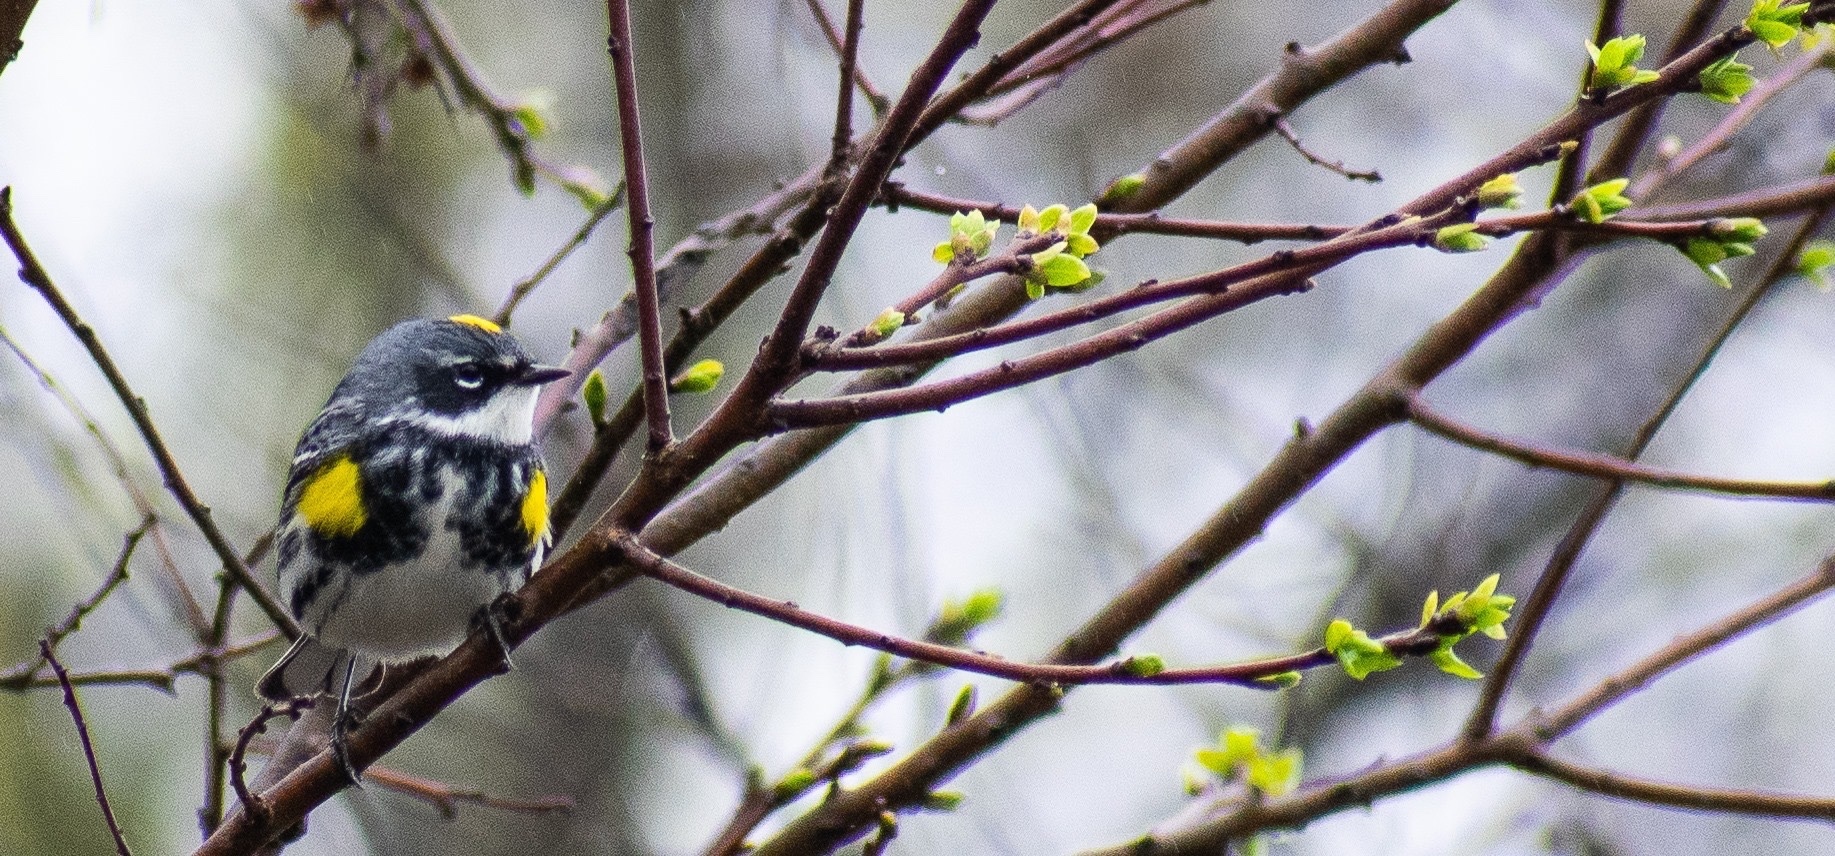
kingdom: Animalia
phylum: Chordata
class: Aves
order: Passeriformes
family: Parulidae
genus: Setophaga
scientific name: Setophaga coronata
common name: Myrtle warbler
